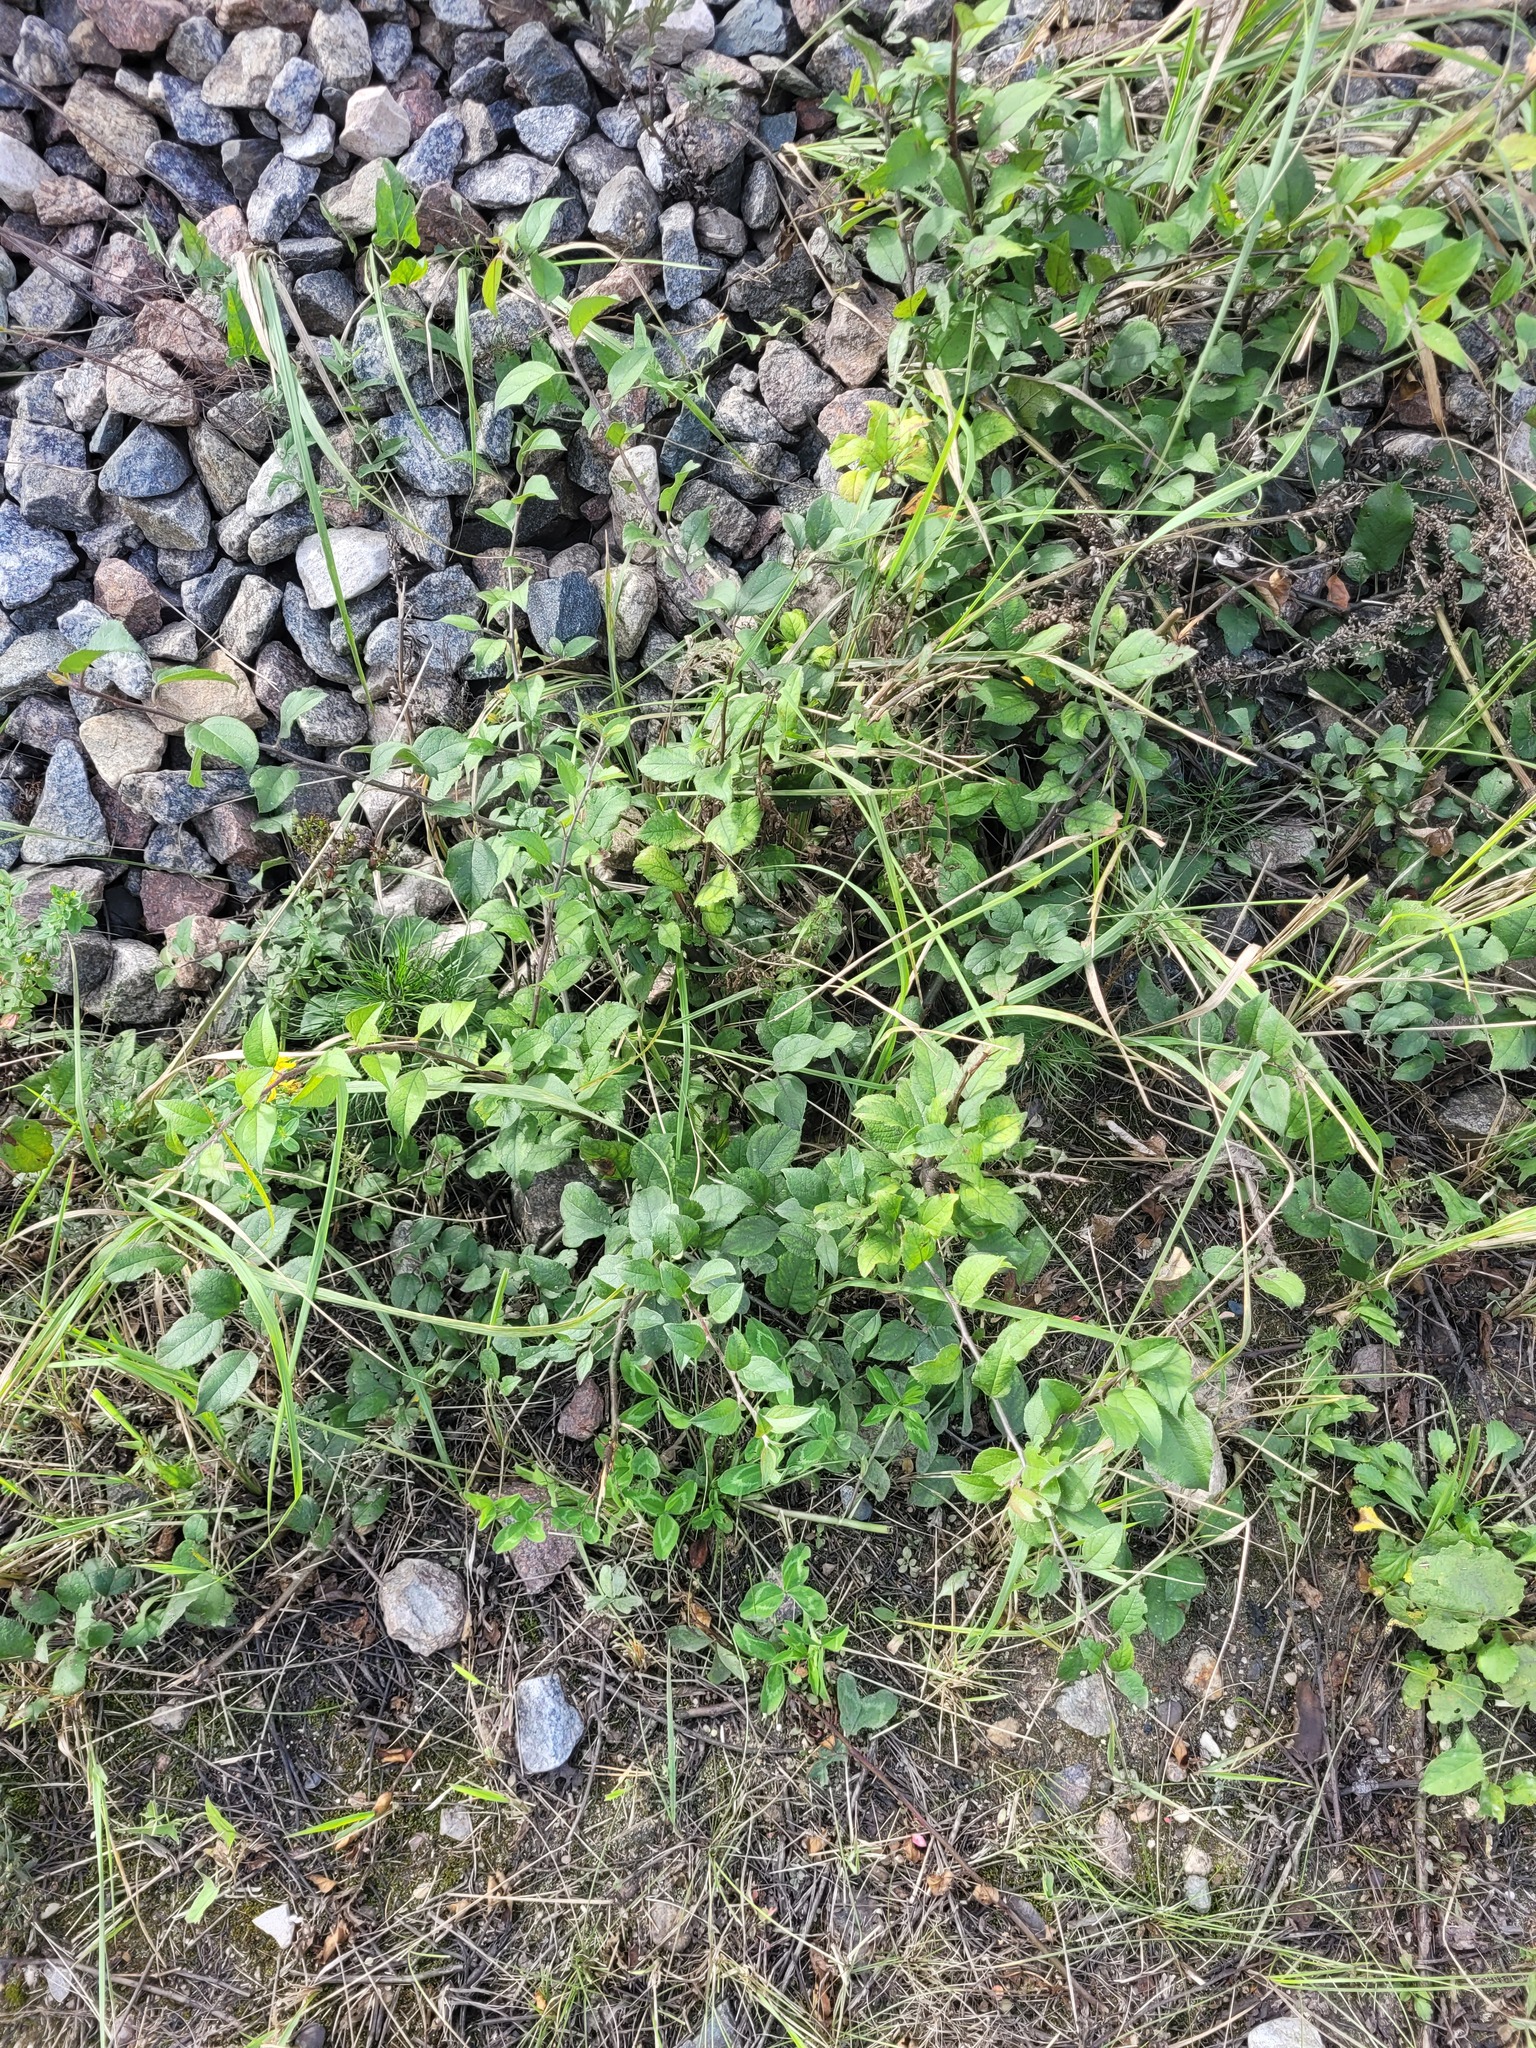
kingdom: Plantae
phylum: Tracheophyta
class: Magnoliopsida
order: Rosales
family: Rosaceae
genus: Malus
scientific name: Malus domestica
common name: Apple
